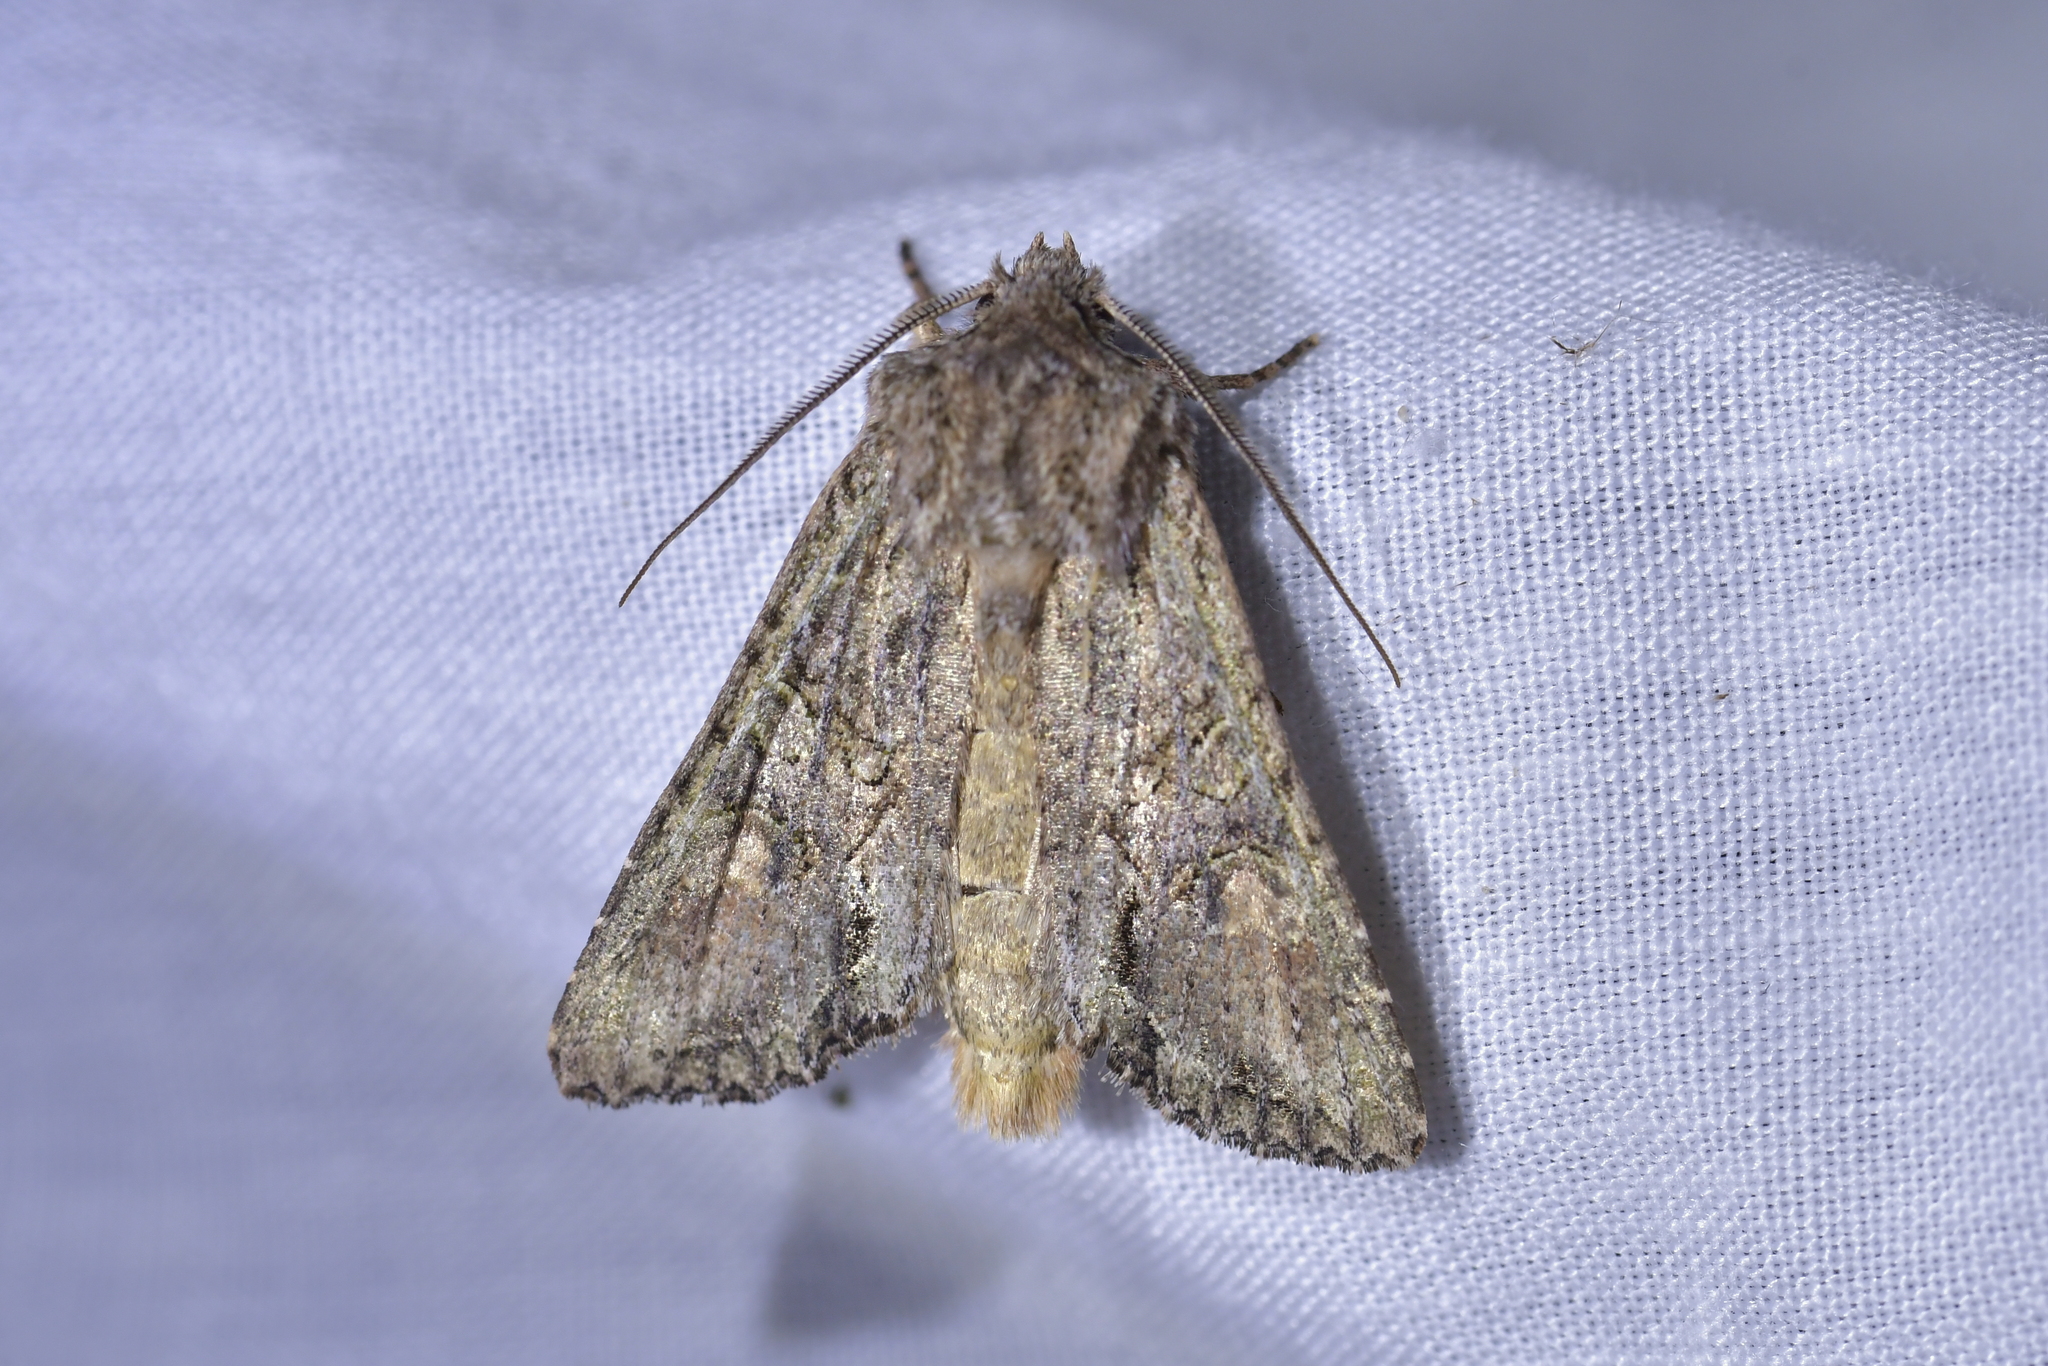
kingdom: Animalia
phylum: Arthropoda
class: Insecta
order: Lepidoptera
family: Noctuidae
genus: Ichneutica
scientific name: Ichneutica mutans
